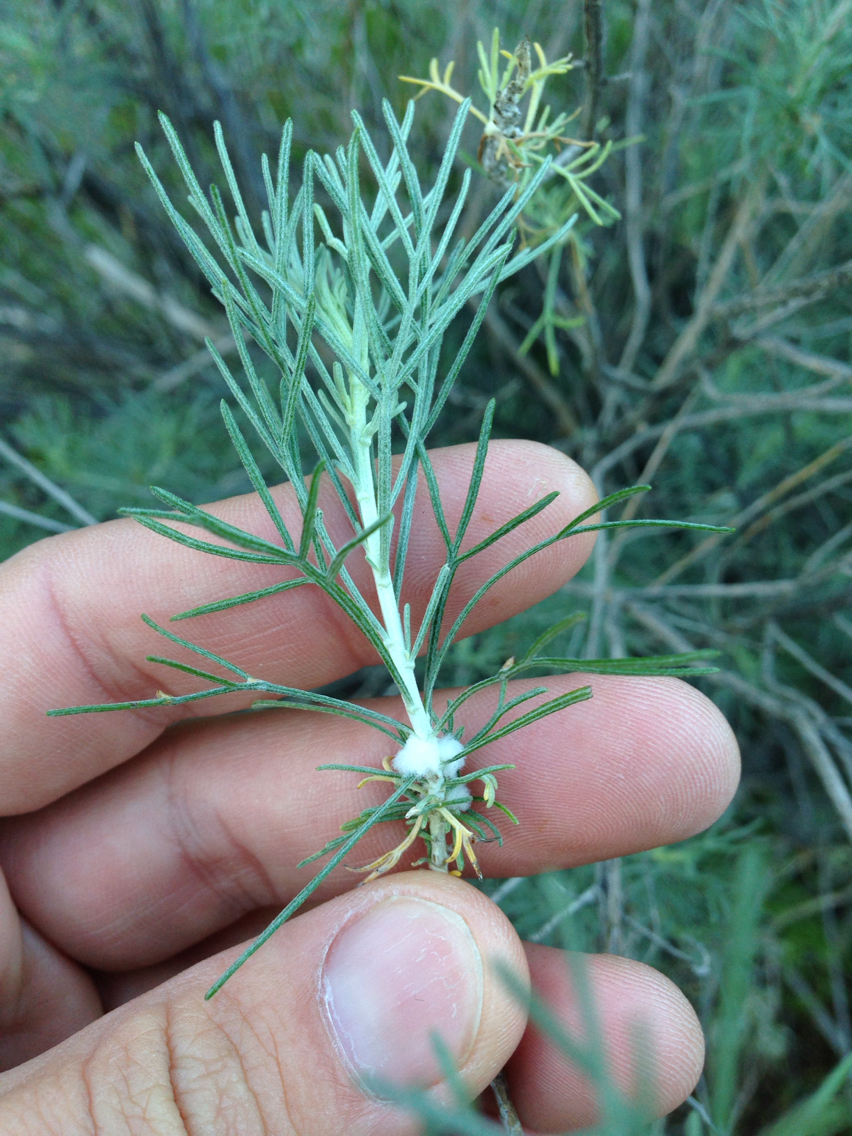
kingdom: Plantae
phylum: Tracheophyta
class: Magnoliopsida
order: Asterales
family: Asteraceae
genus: Artemisia
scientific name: Artemisia californica
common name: California sagebrush
